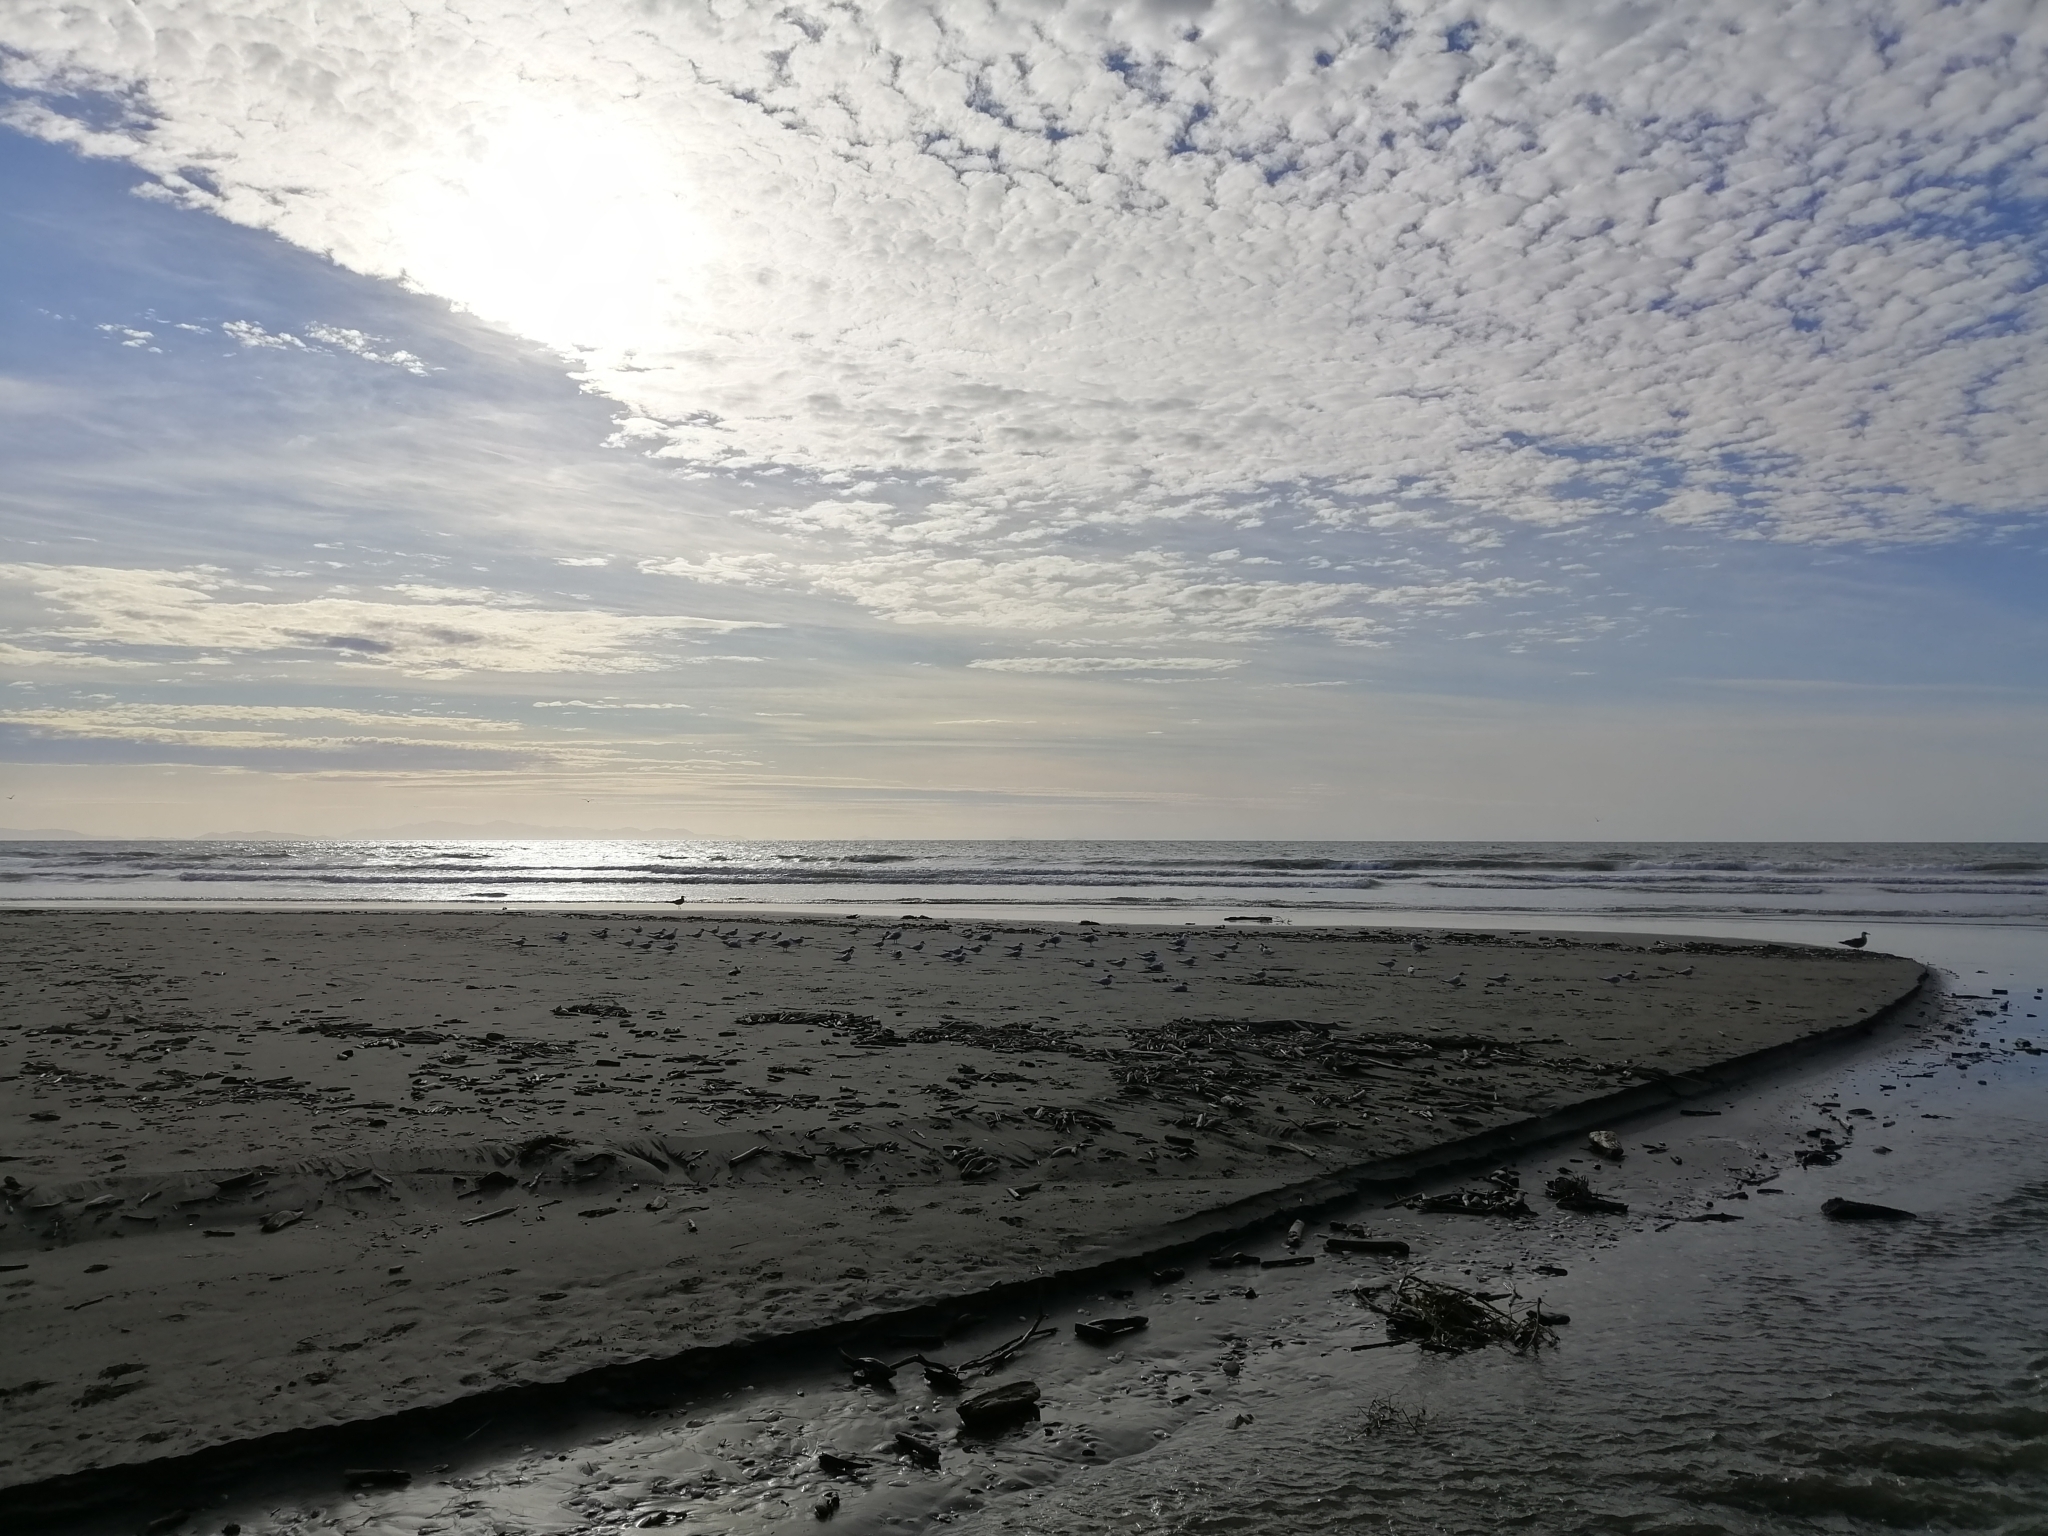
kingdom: Animalia
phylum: Chordata
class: Aves
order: Charadriiformes
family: Laridae
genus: Sterna
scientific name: Sterna striata
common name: White-fronted tern
